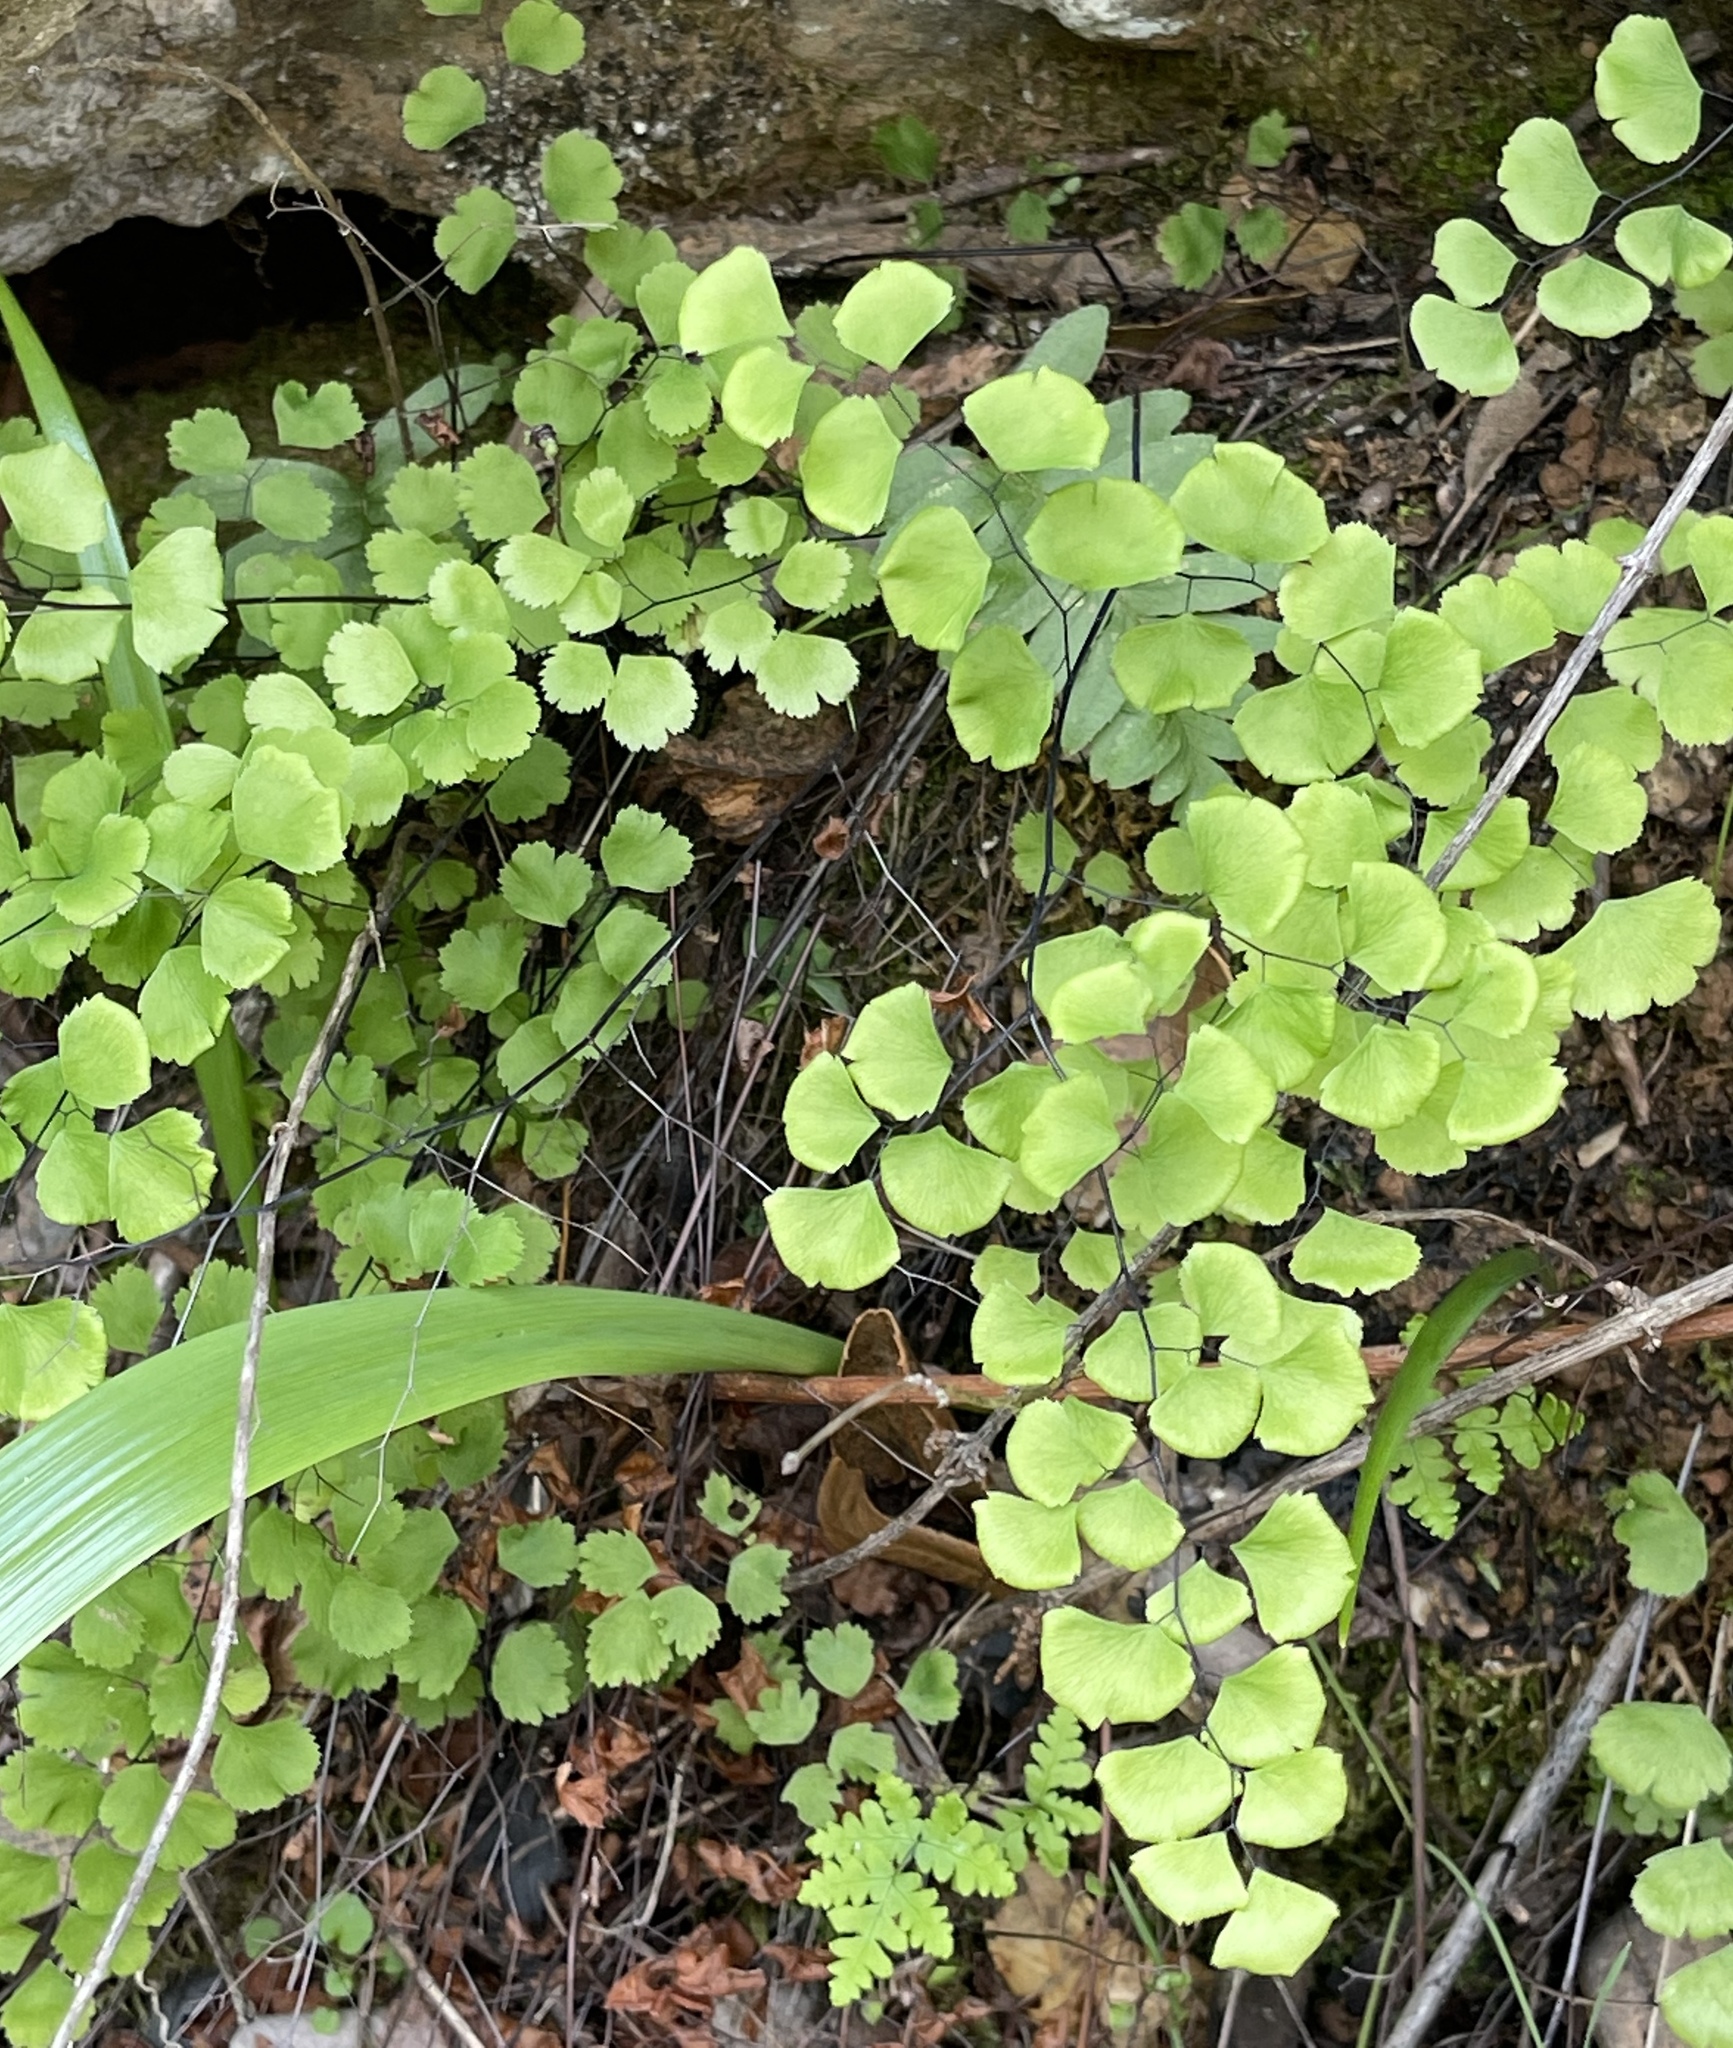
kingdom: Plantae
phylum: Tracheophyta
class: Polypodiopsida
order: Polypodiales
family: Pteridaceae
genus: Adiantum
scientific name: Adiantum jordanii
